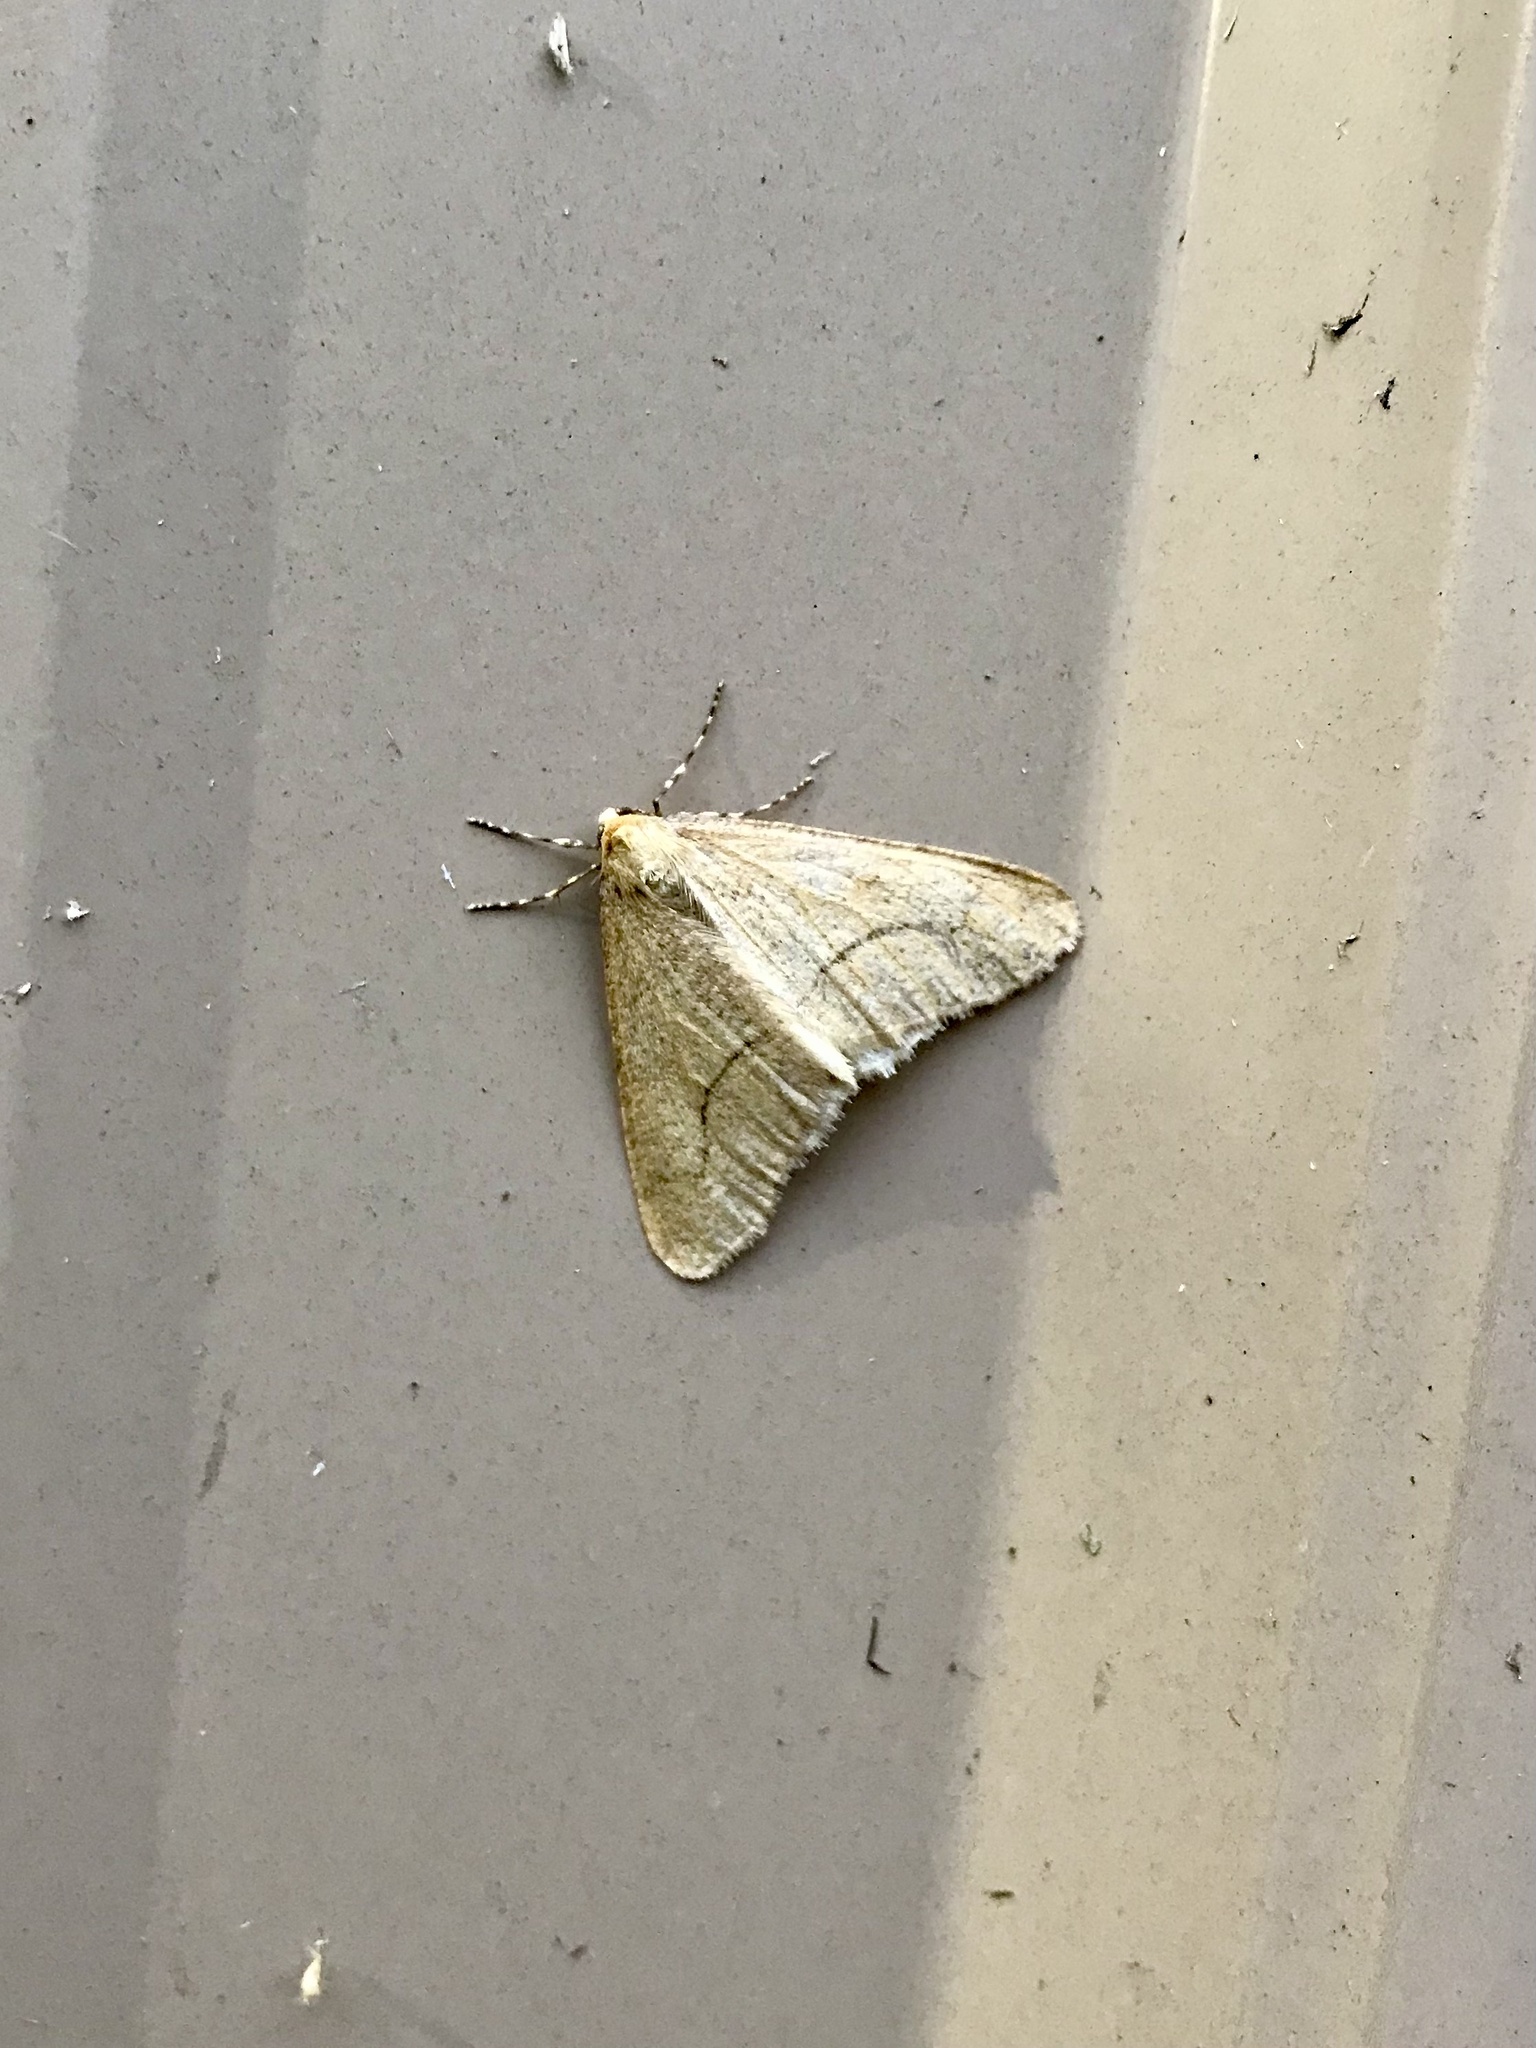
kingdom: Animalia
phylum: Arthropoda
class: Insecta
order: Lepidoptera
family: Geometridae
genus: Erannis
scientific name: Erannis tiliaria
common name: Linden looper
